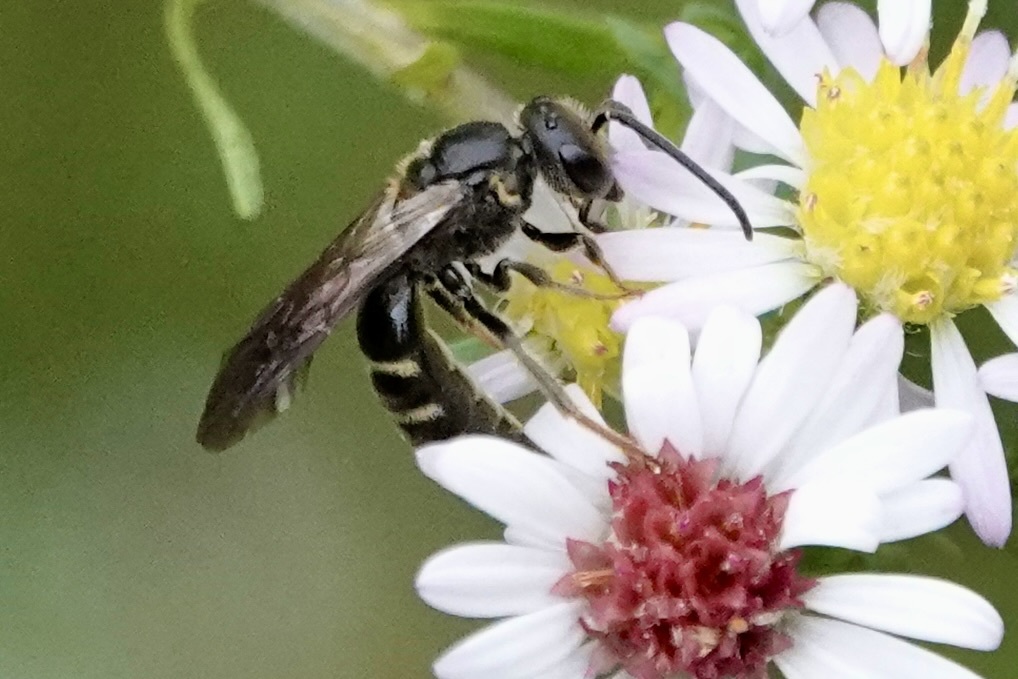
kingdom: Animalia
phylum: Arthropoda
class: Insecta
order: Hymenoptera
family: Halictidae
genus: Lasioglossum
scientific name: Lasioglossum fuscipenne
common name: Brown-winged sweat bee
